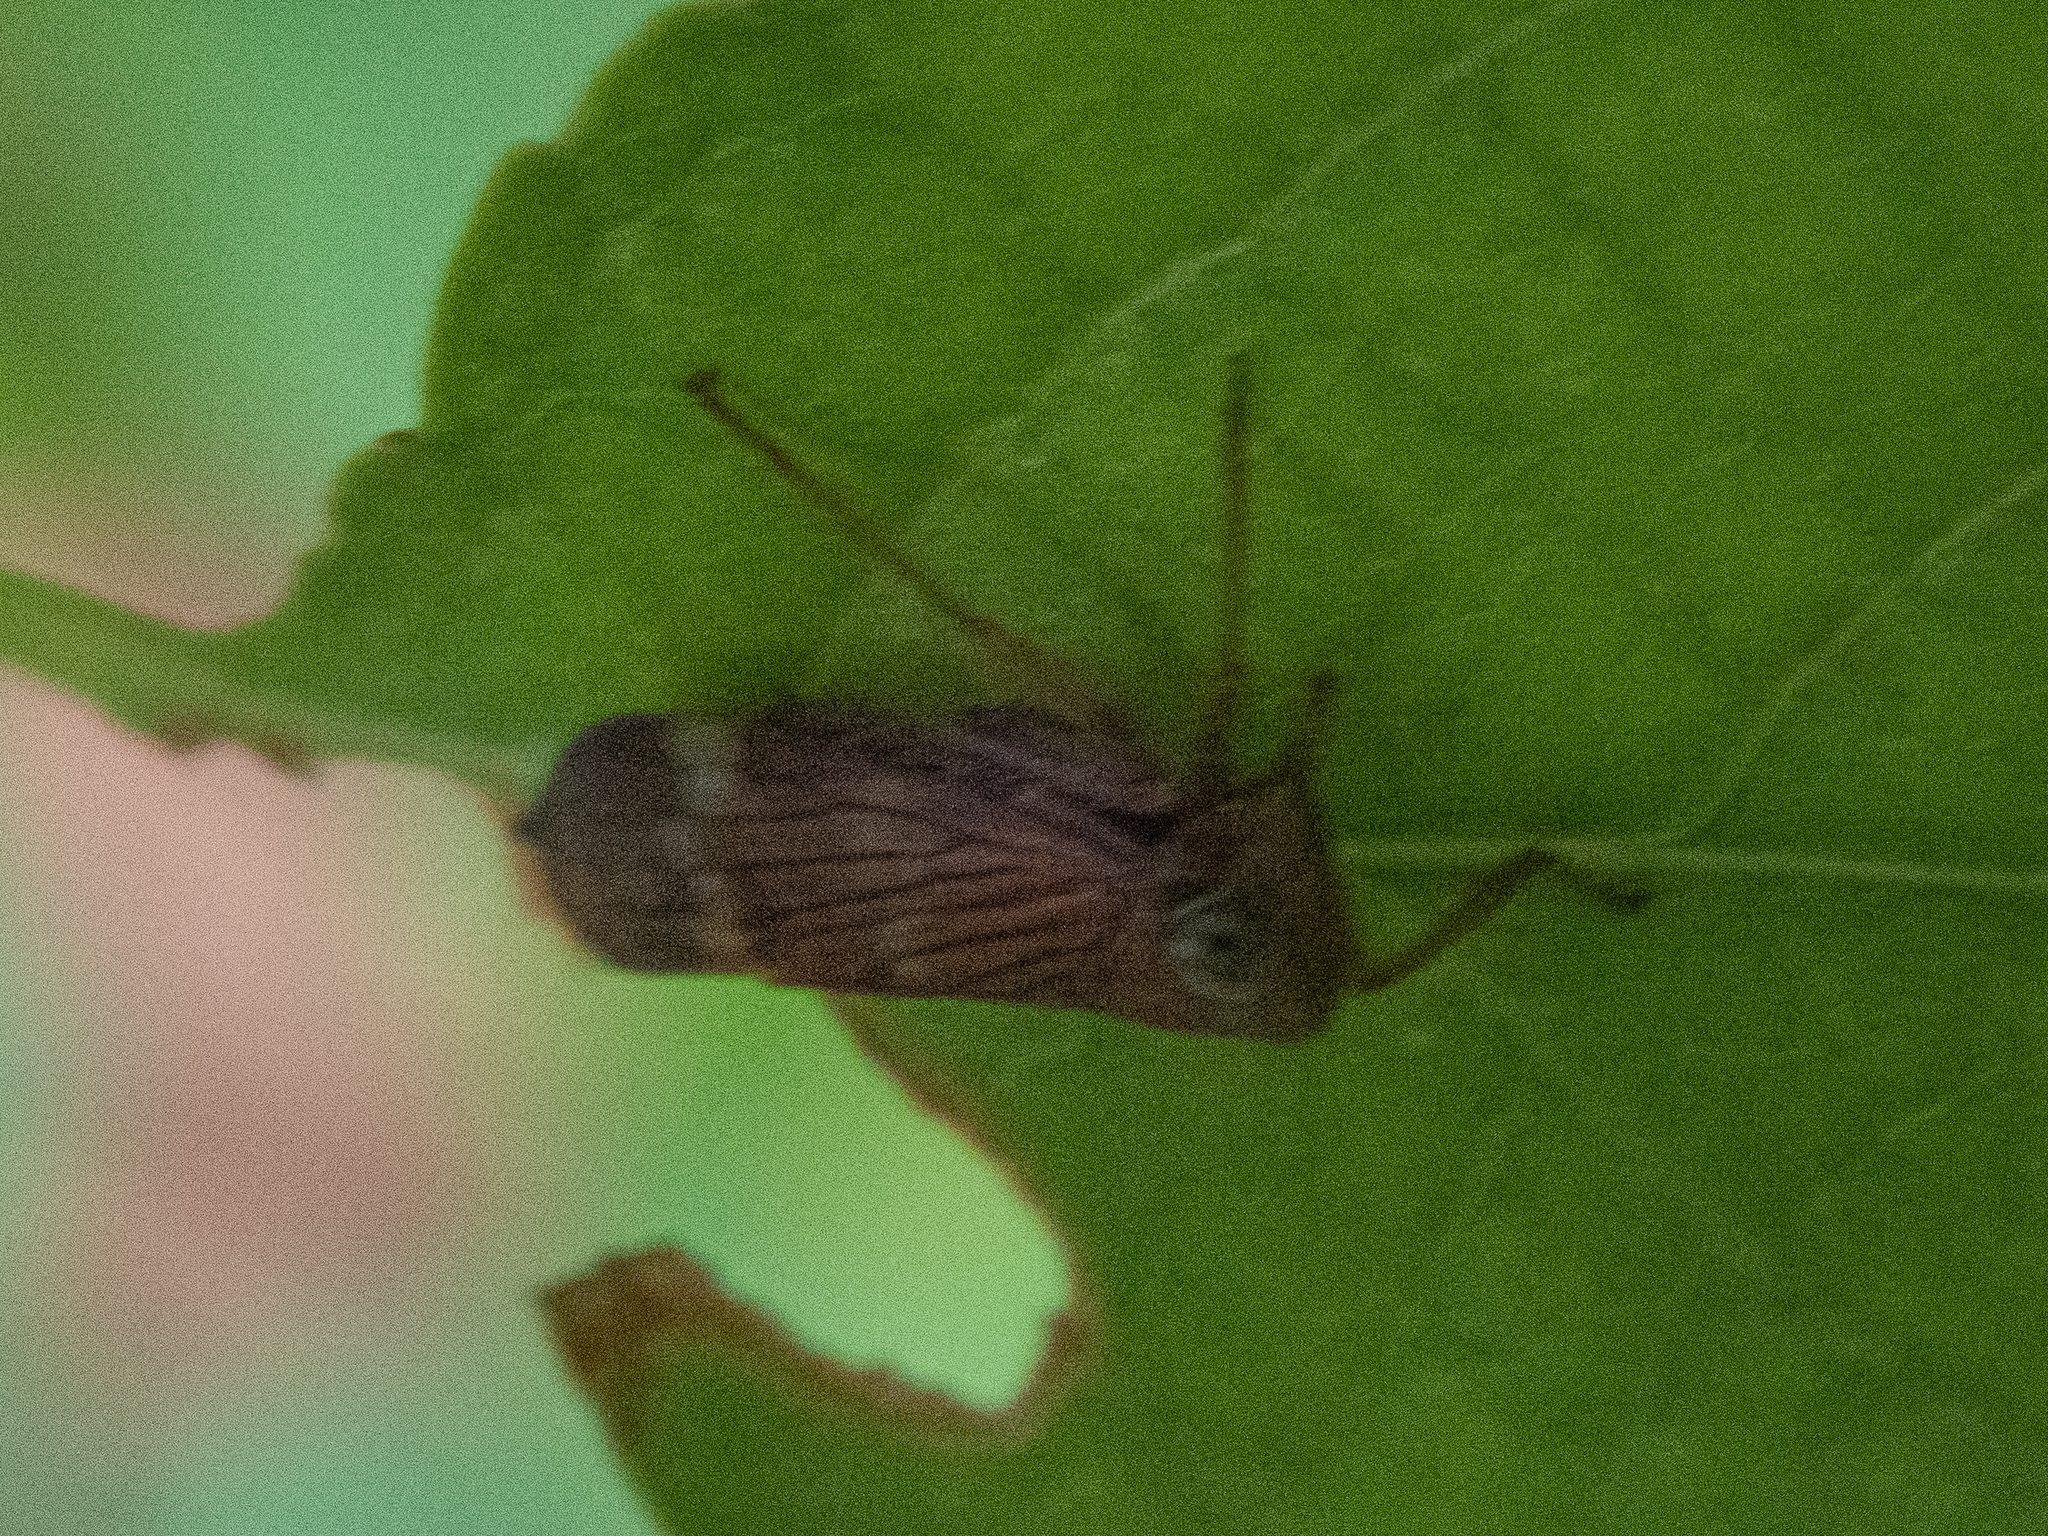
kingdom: Animalia
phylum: Arthropoda
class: Insecta
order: Hemiptera
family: Cicadellidae
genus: Jikradia
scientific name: Jikradia olitoria
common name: Coppery leafhopper
